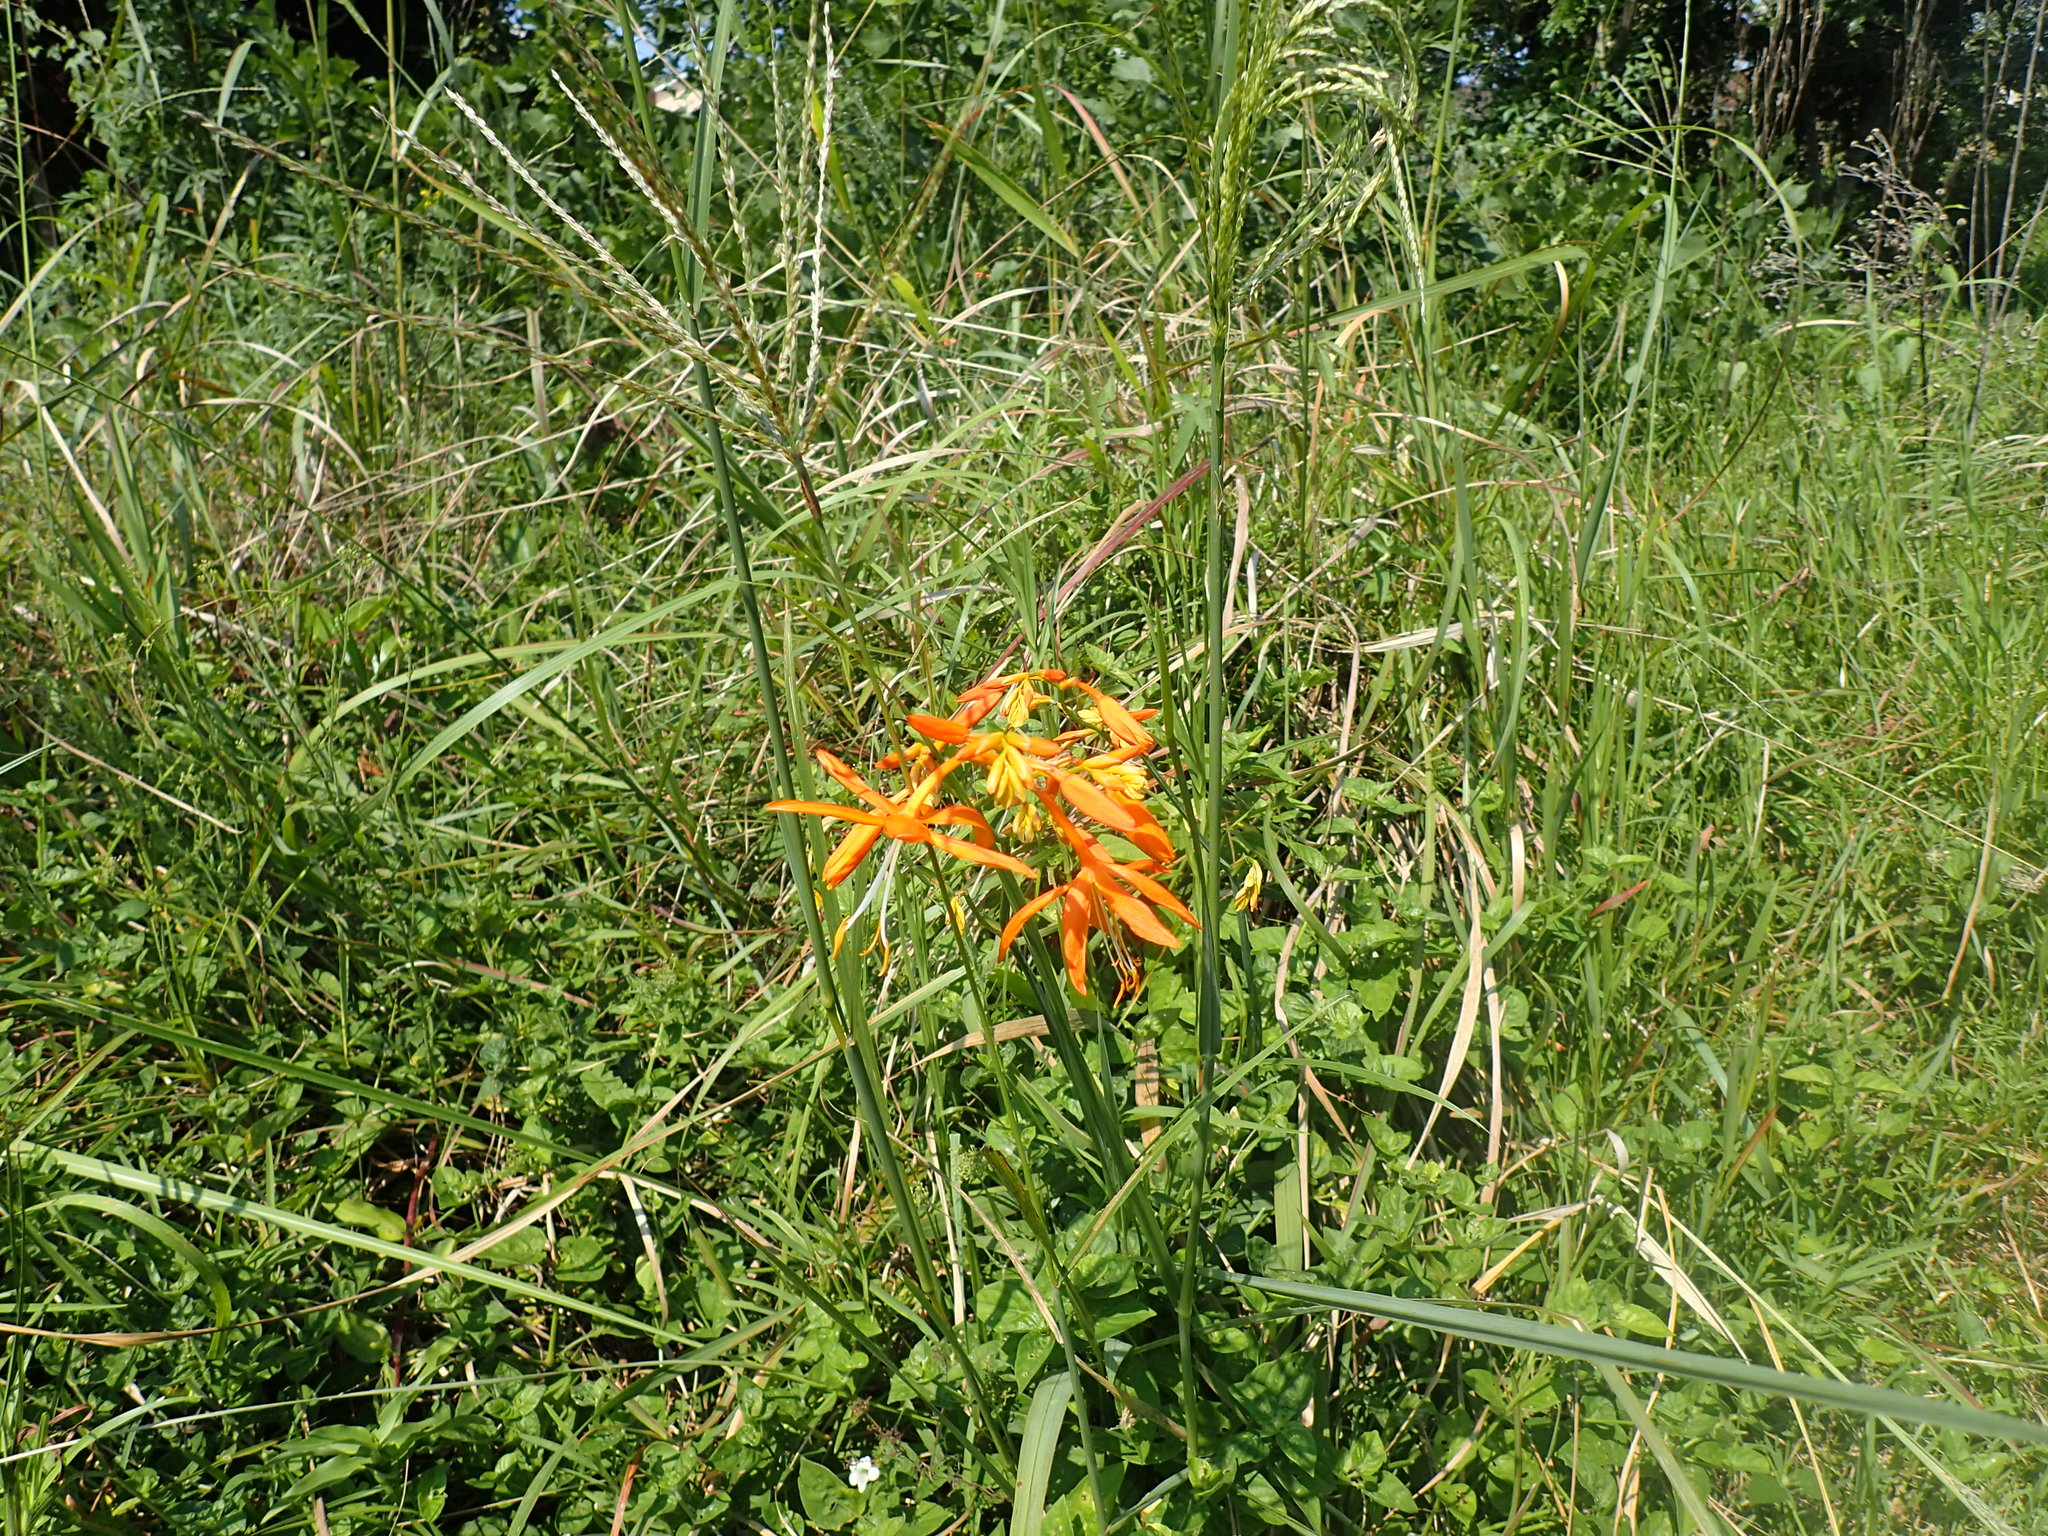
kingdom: Plantae
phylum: Tracheophyta
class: Liliopsida
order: Asparagales
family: Iridaceae
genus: Crocosmia
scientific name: Crocosmia aurea
